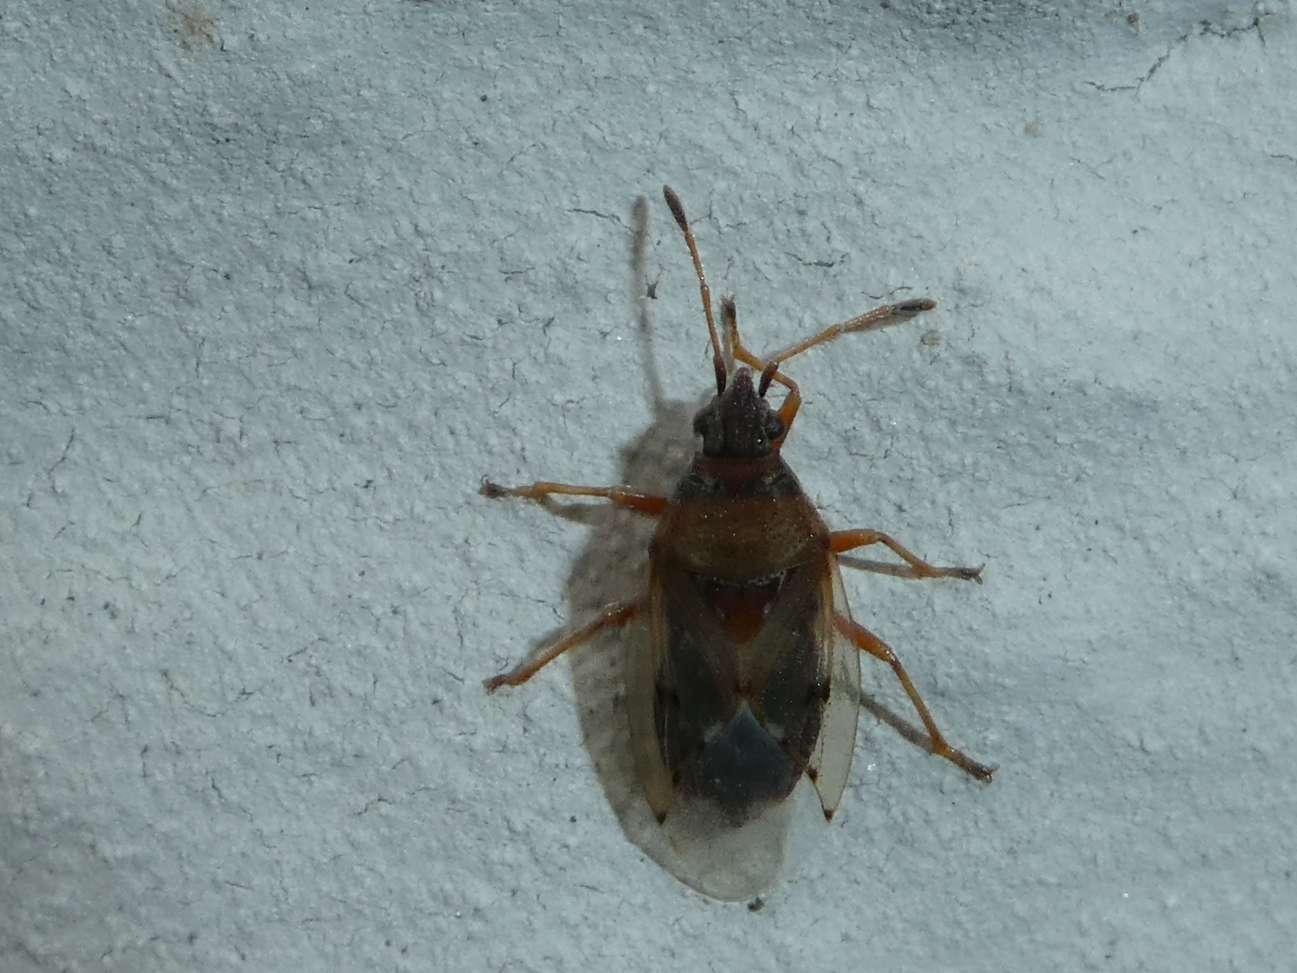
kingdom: Animalia
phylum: Arthropoda
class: Insecta
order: Hemiptera
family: Lygaeidae
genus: Kleidocerys
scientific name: Kleidocerys resedae
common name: Birch catkin bug
